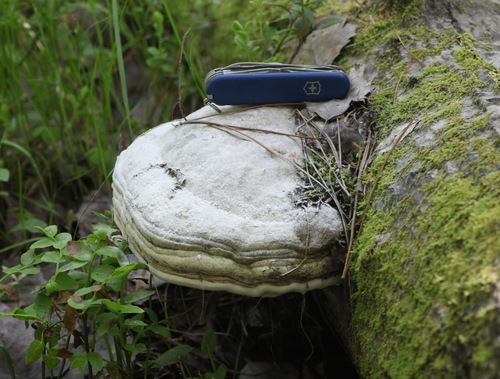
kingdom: Fungi
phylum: Basidiomycota
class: Agaricomycetes
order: Polyporales
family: Polyporaceae
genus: Fomes
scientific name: Fomes fomentarius
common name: Hoof fungus
